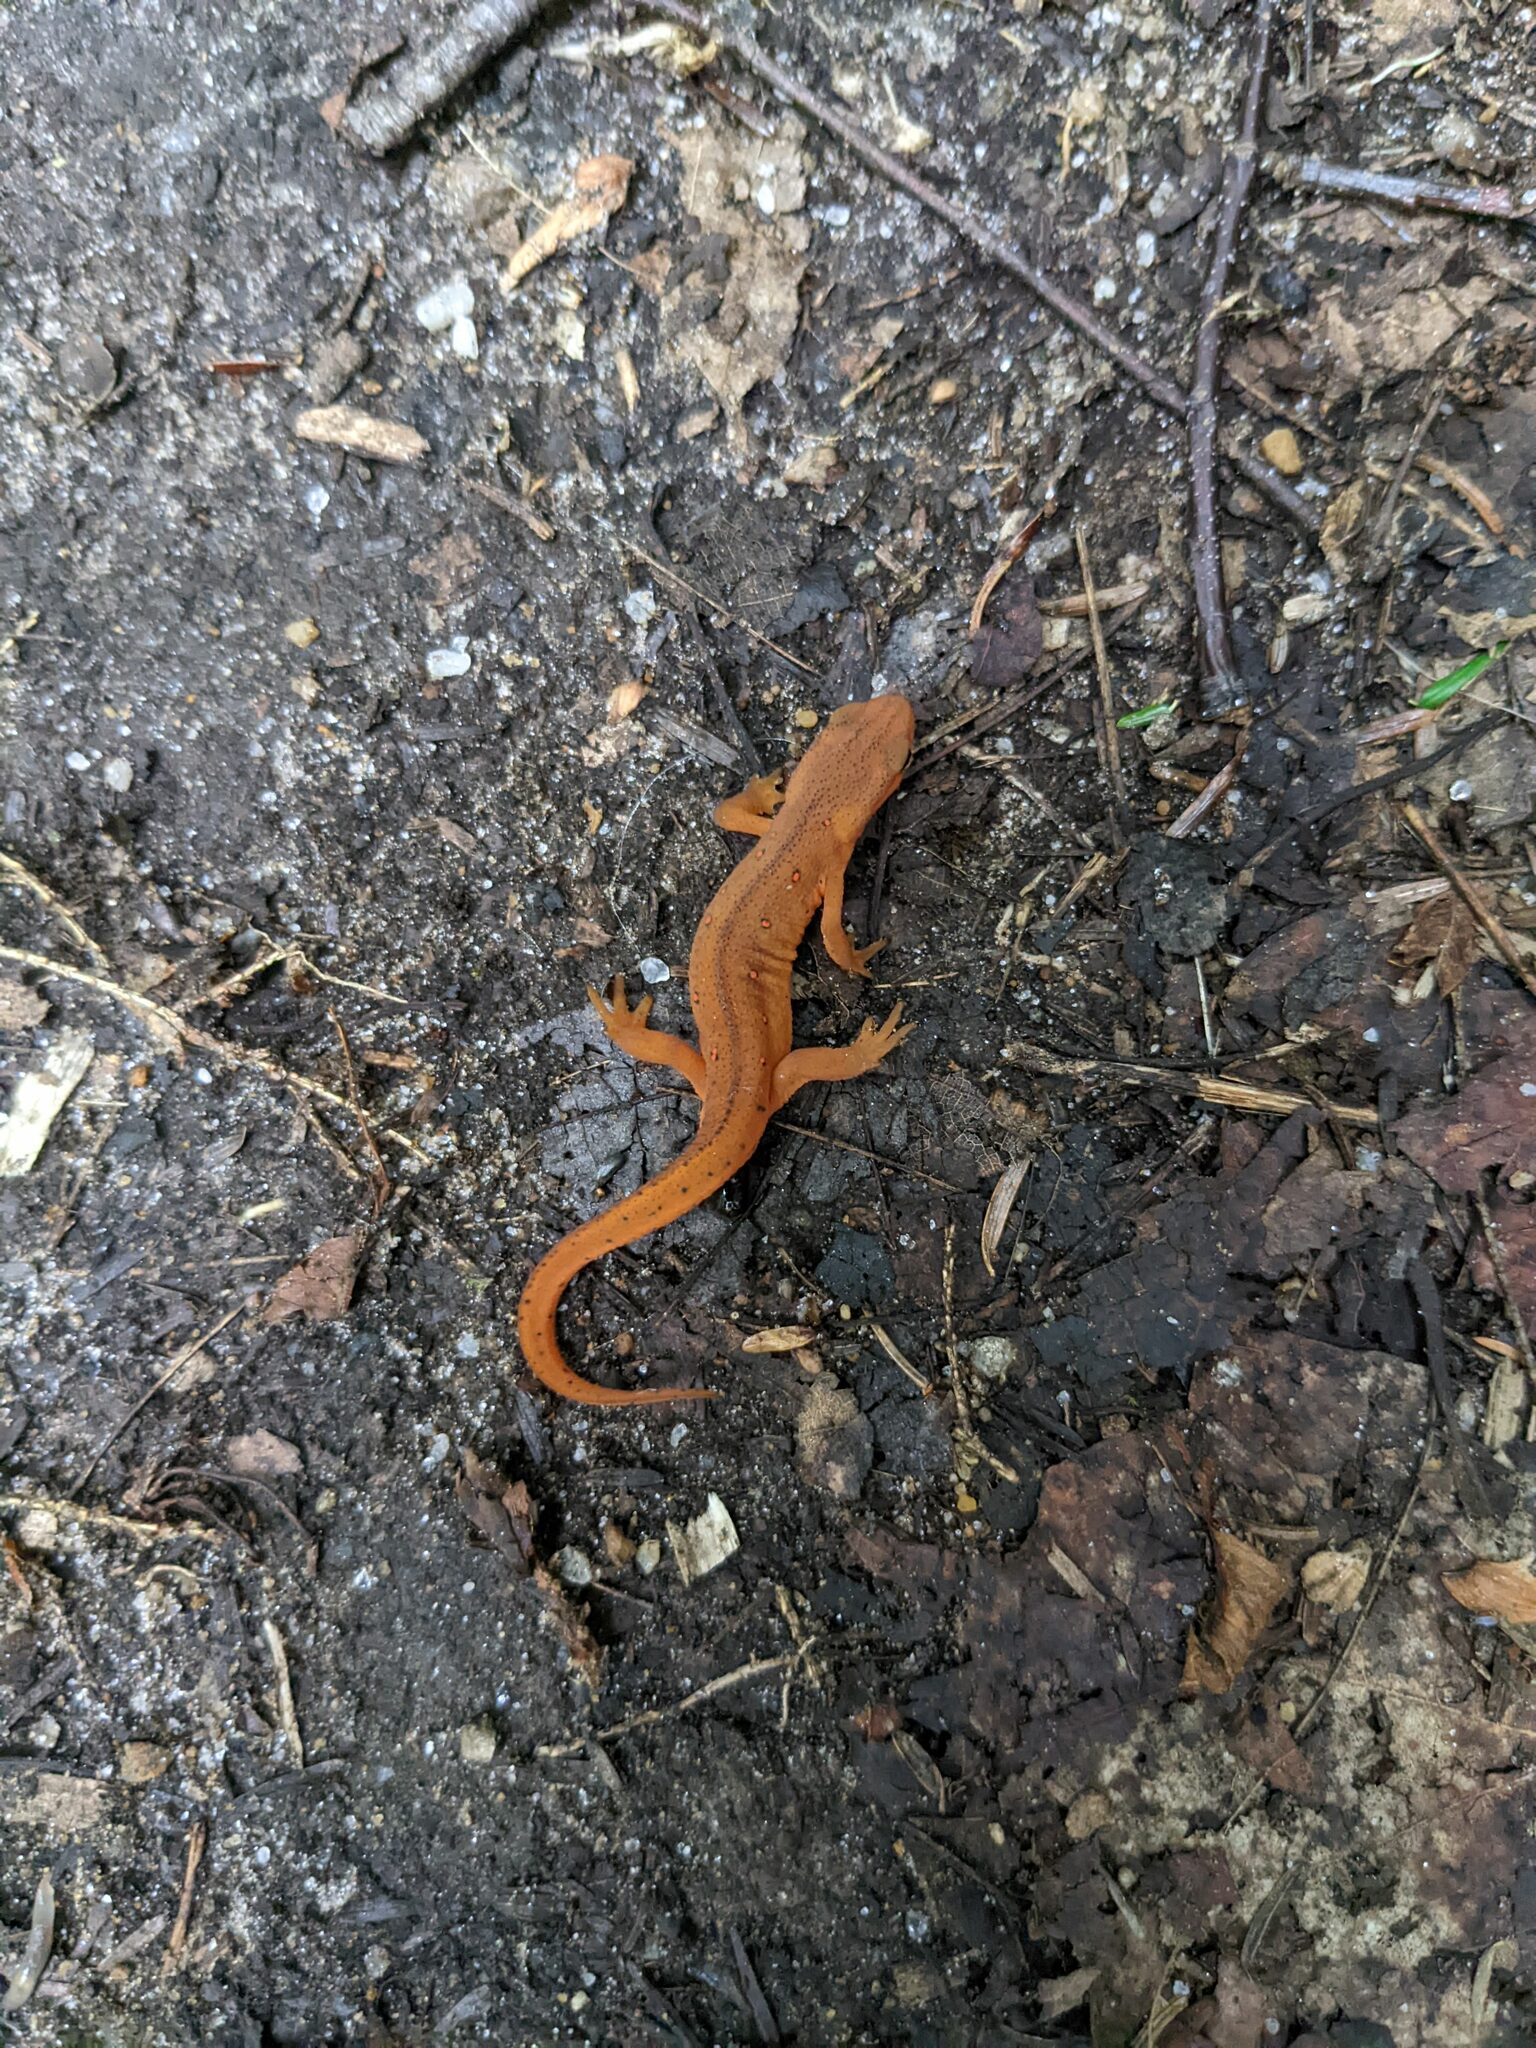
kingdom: Animalia
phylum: Chordata
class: Amphibia
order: Caudata
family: Salamandridae
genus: Notophthalmus
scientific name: Notophthalmus viridescens
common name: Eastern newt
